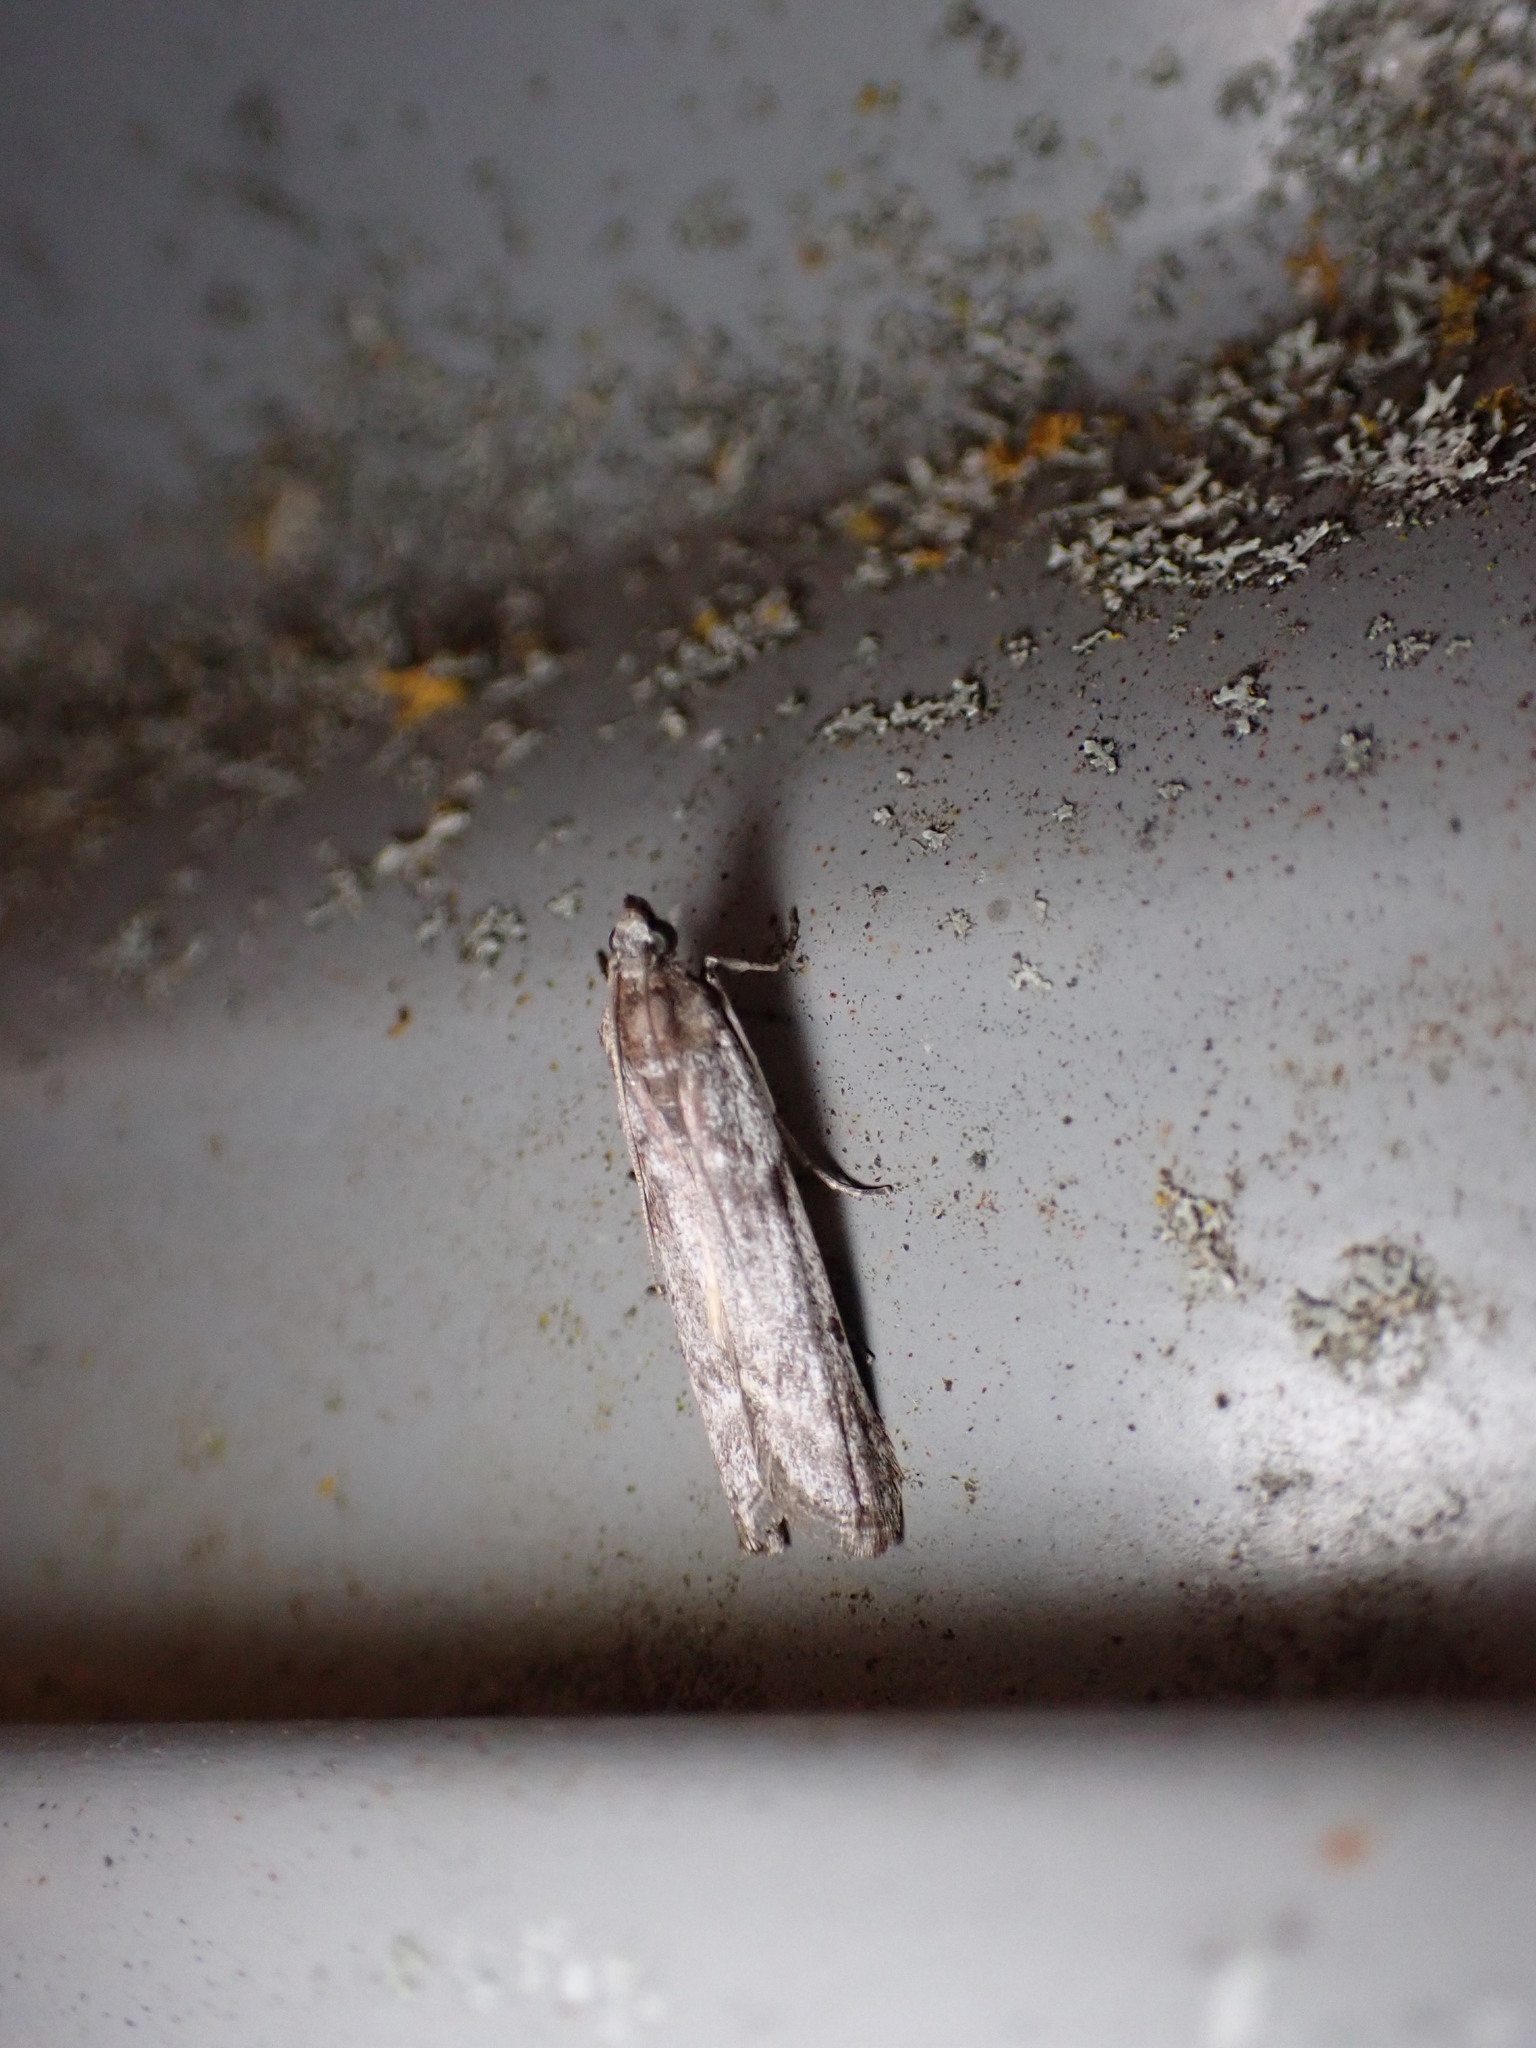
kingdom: Animalia
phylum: Arthropoda
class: Insecta
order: Lepidoptera
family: Pyralidae
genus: Patagoniodes
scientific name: Patagoniodes farinaria
